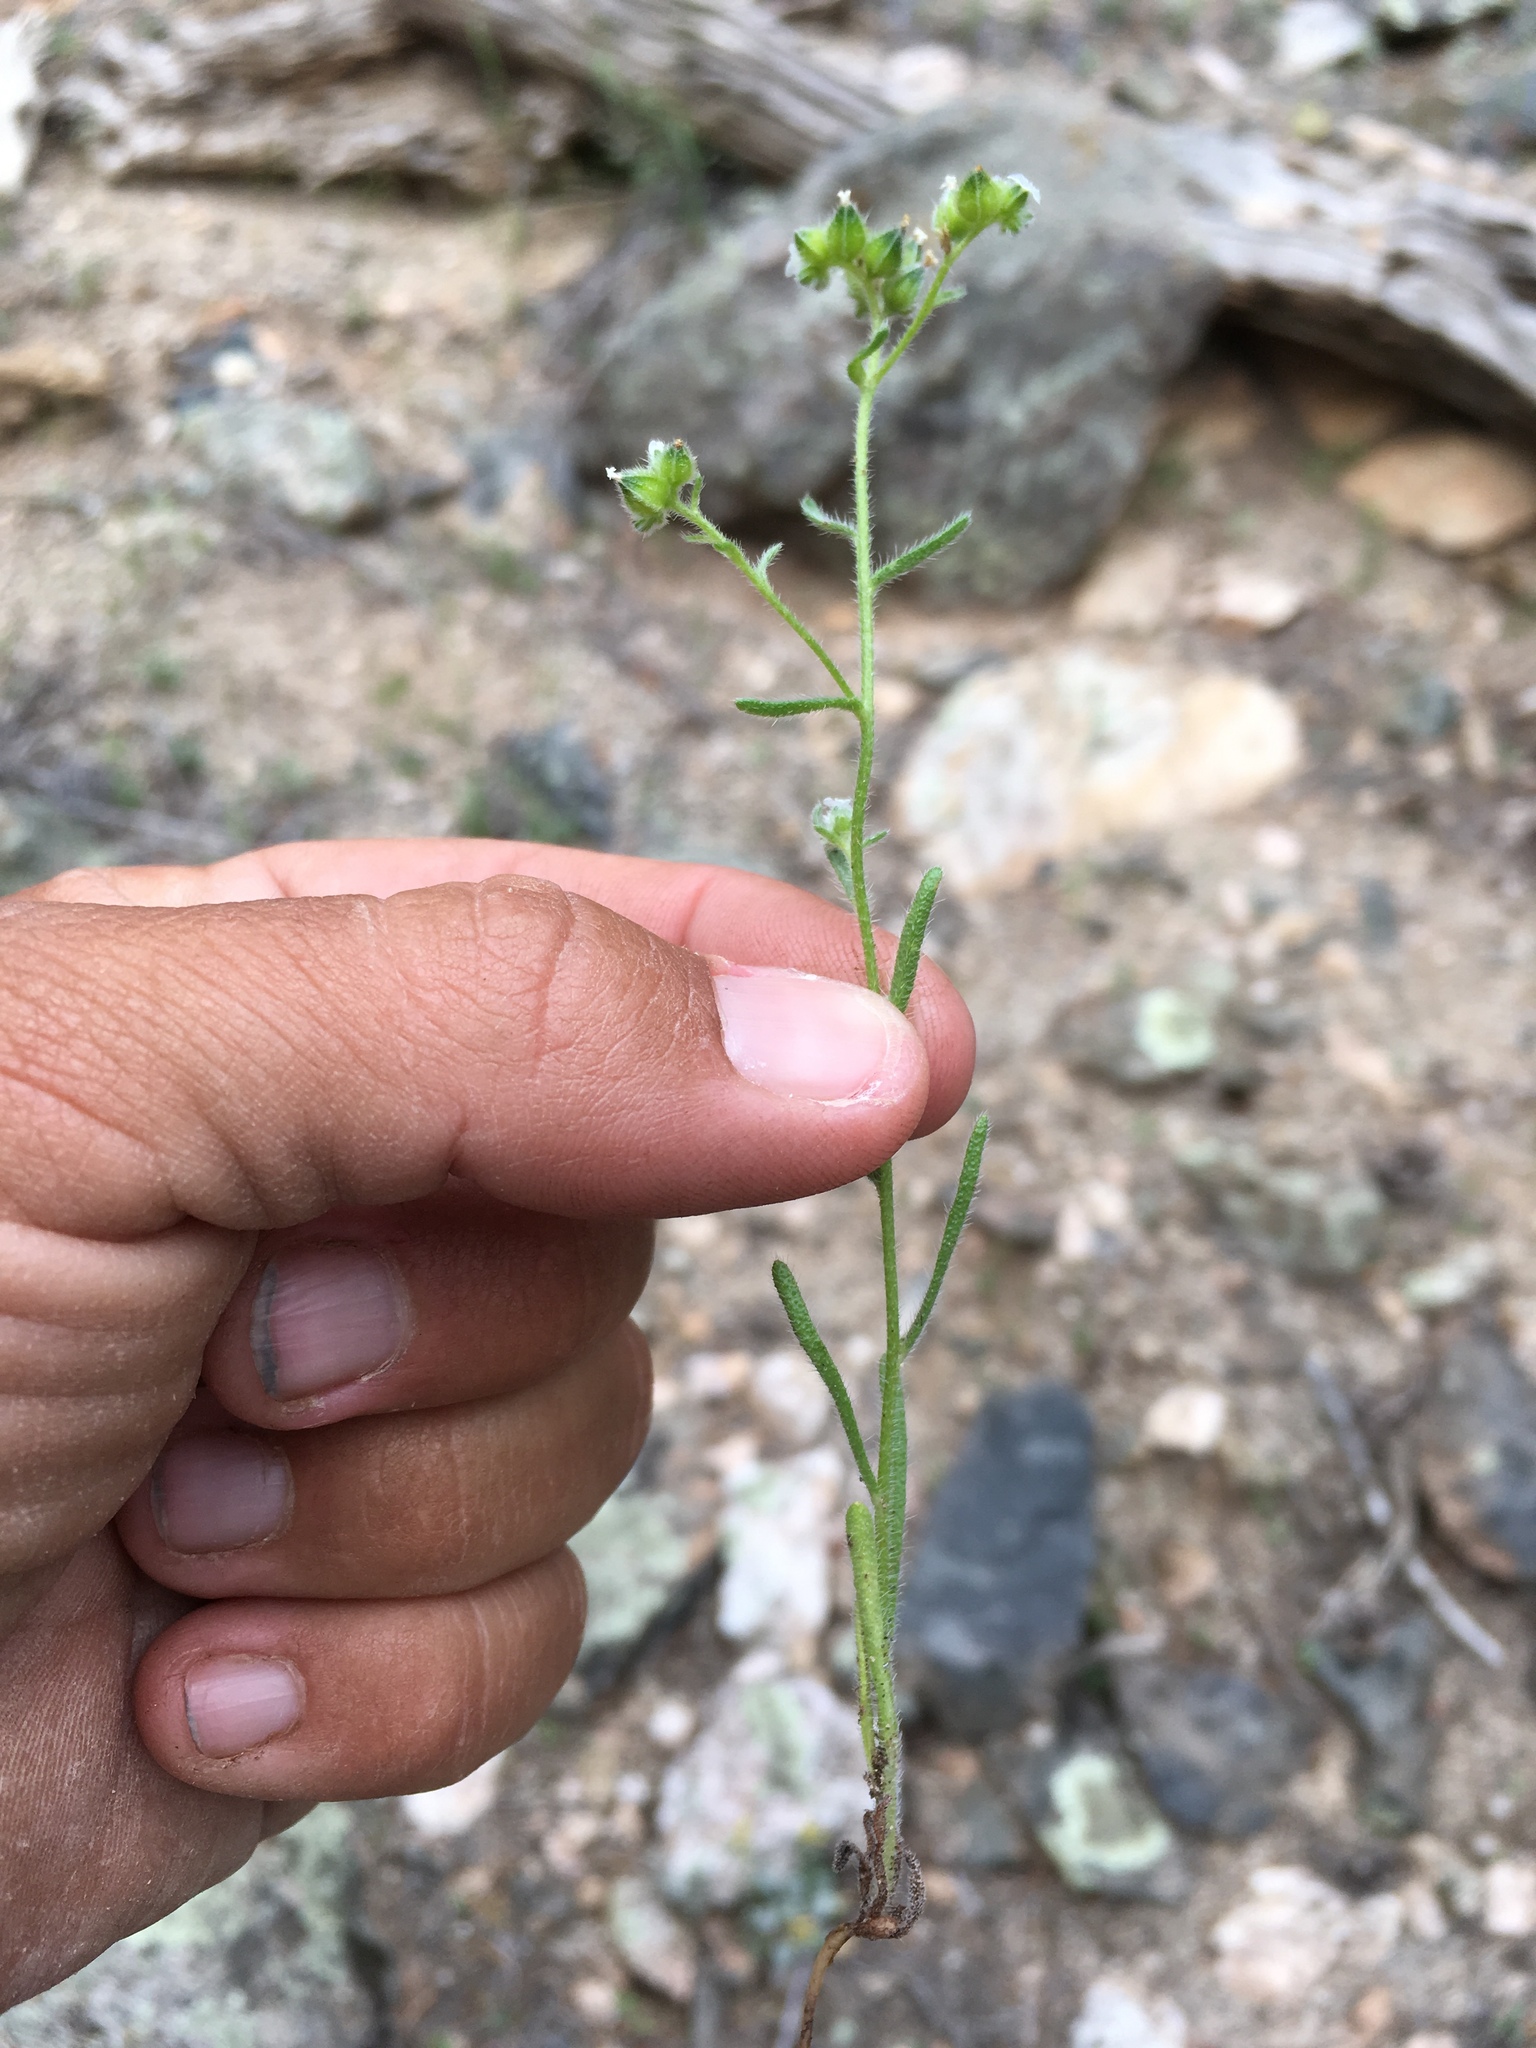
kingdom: Plantae
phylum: Tracheophyta
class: Magnoliopsida
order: Boraginales
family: Boraginaceae
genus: Cryptantha
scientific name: Cryptantha pterocarya
